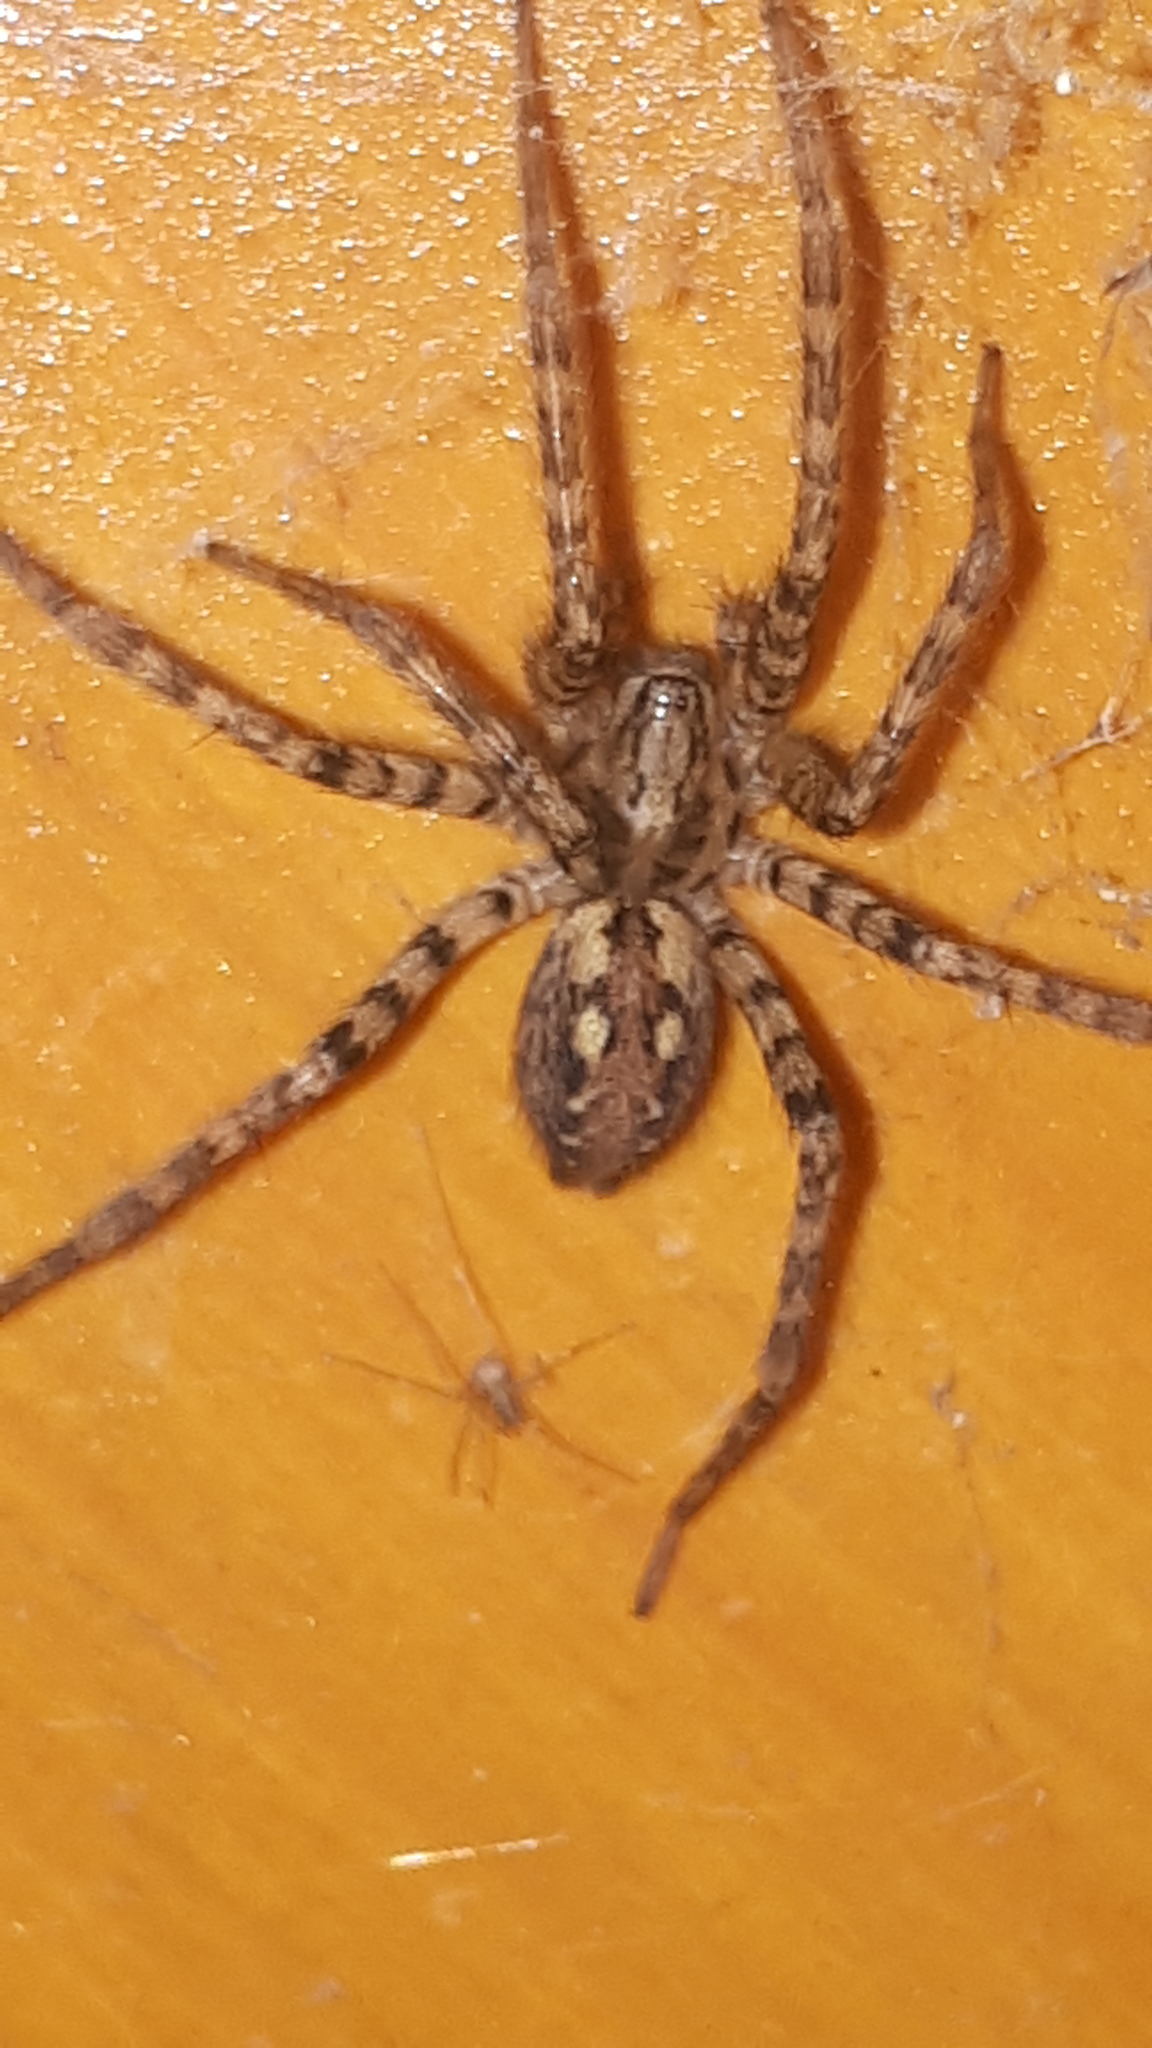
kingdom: Animalia
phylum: Arthropoda
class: Arachnida
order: Araneae
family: Agelenidae
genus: Tegenaria
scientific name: Tegenaria ferruginea
